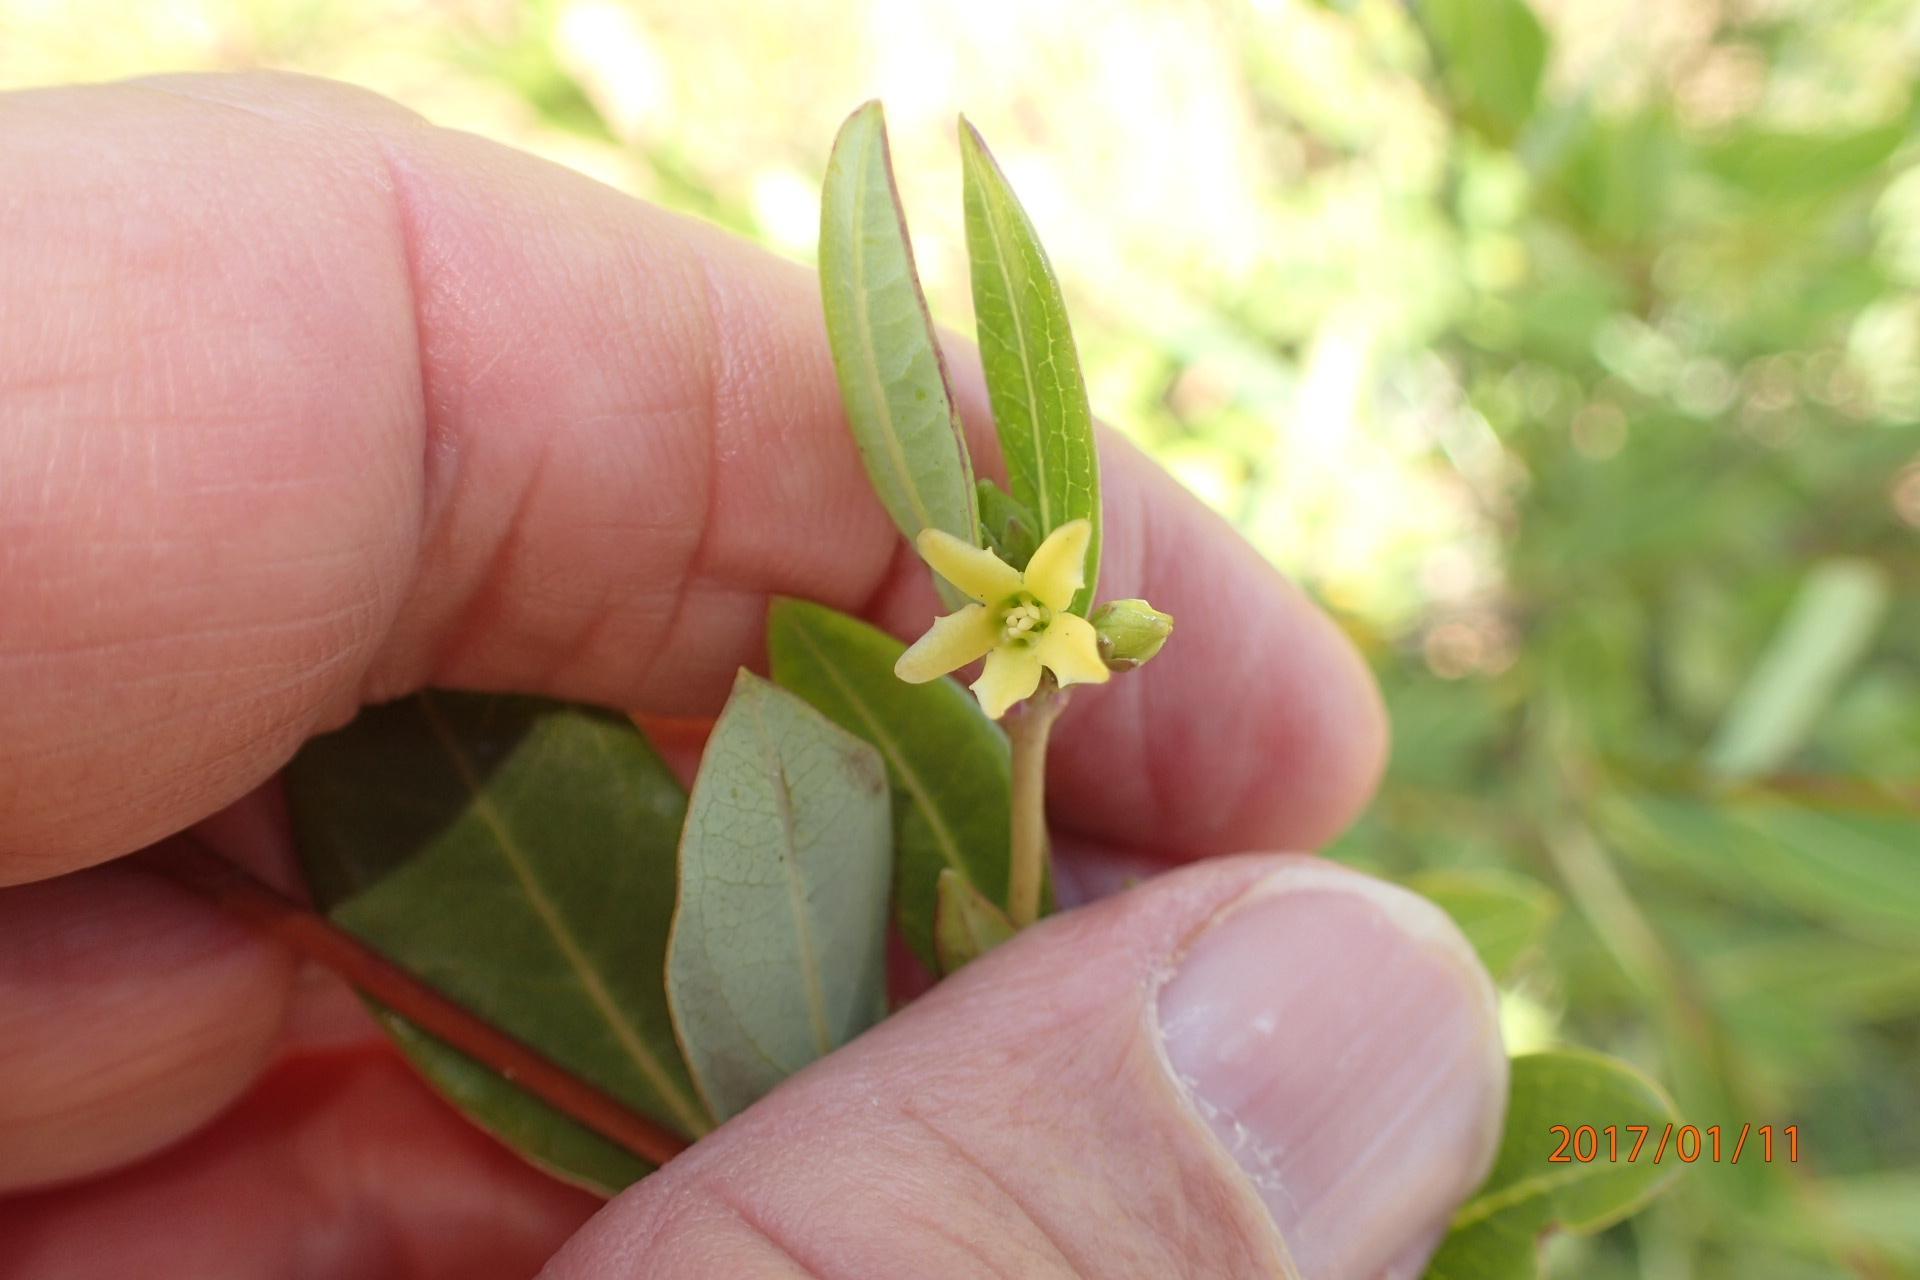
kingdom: Plantae
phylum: Tracheophyta
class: Magnoliopsida
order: Gentianales
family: Apocynaceae
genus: Cryptolepis
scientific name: Cryptolepis oblongifolia
